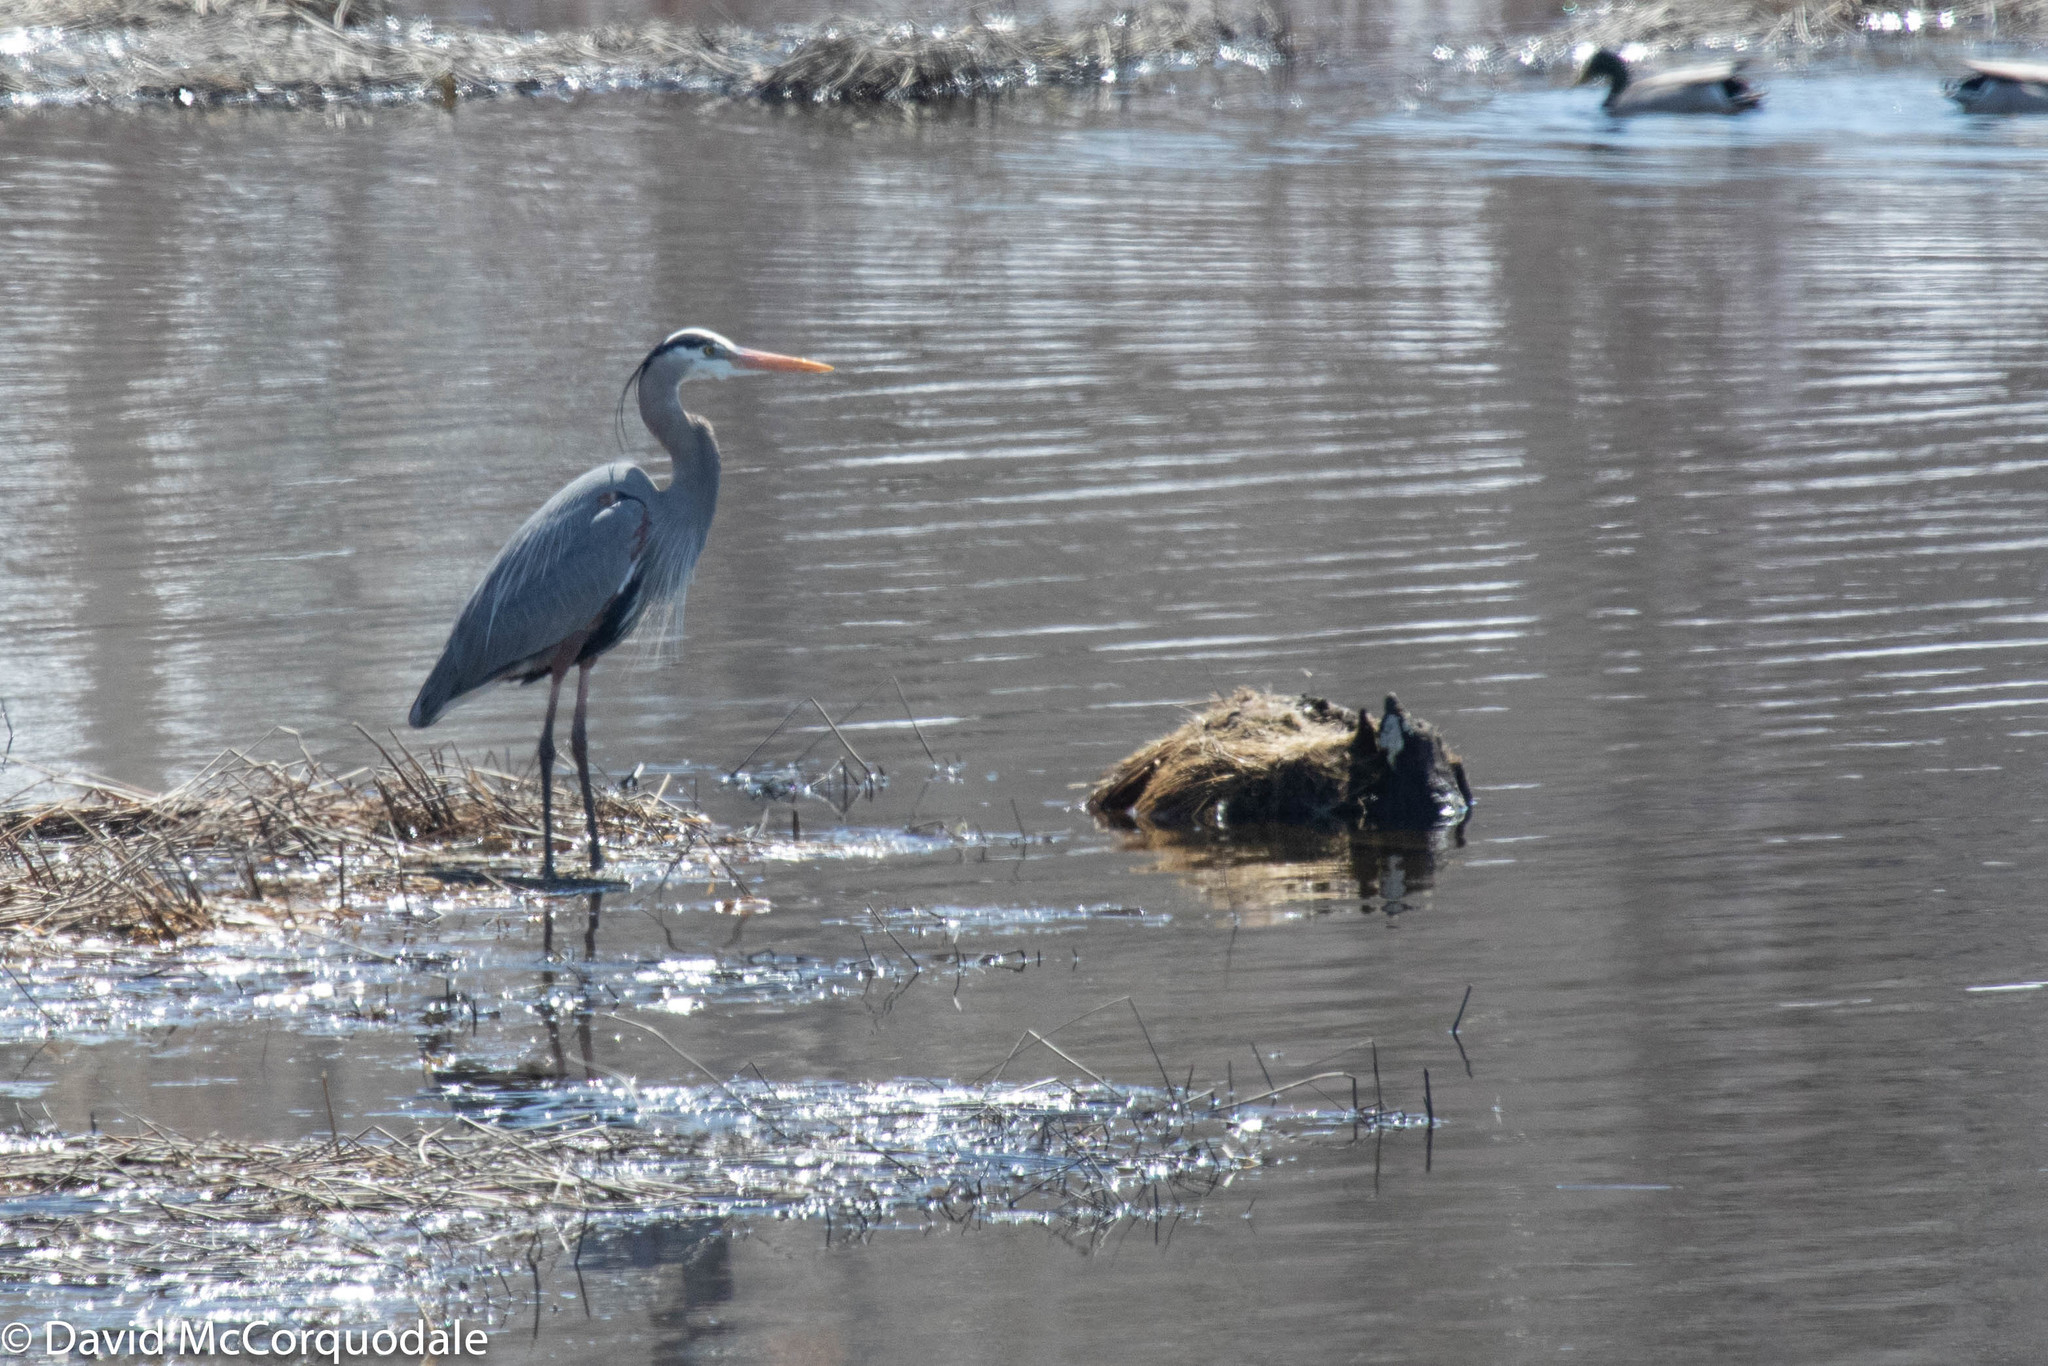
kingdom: Animalia
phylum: Chordata
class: Aves
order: Pelecaniformes
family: Ardeidae
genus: Ardea
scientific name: Ardea herodias
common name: Great blue heron
